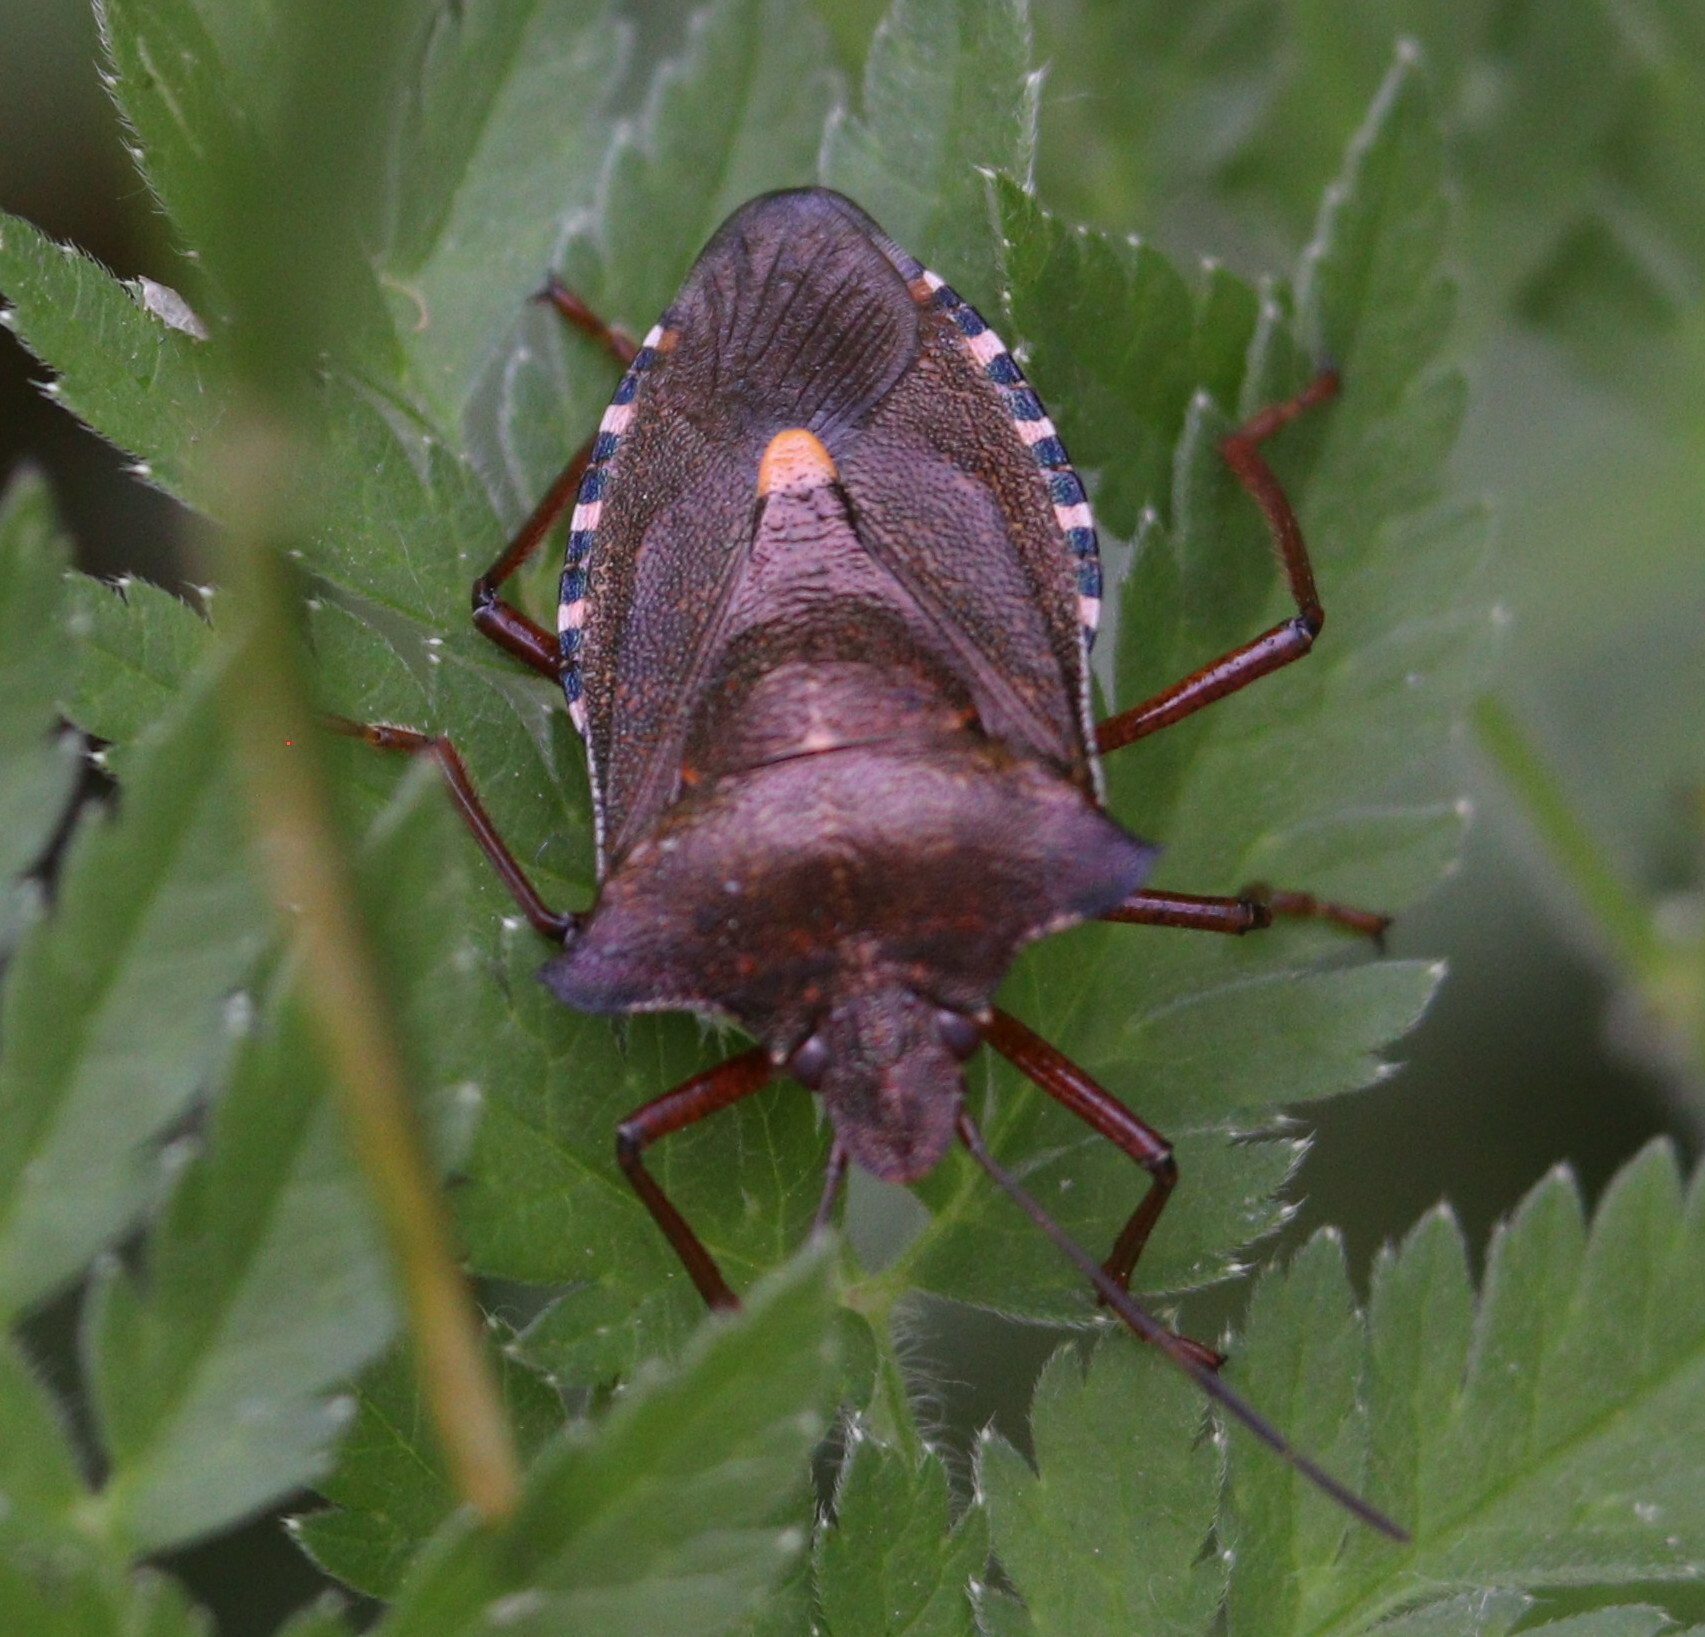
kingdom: Animalia
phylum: Arthropoda
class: Insecta
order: Hemiptera
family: Pentatomidae
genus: Pentatoma
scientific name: Pentatoma rufipes
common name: Forest bug
